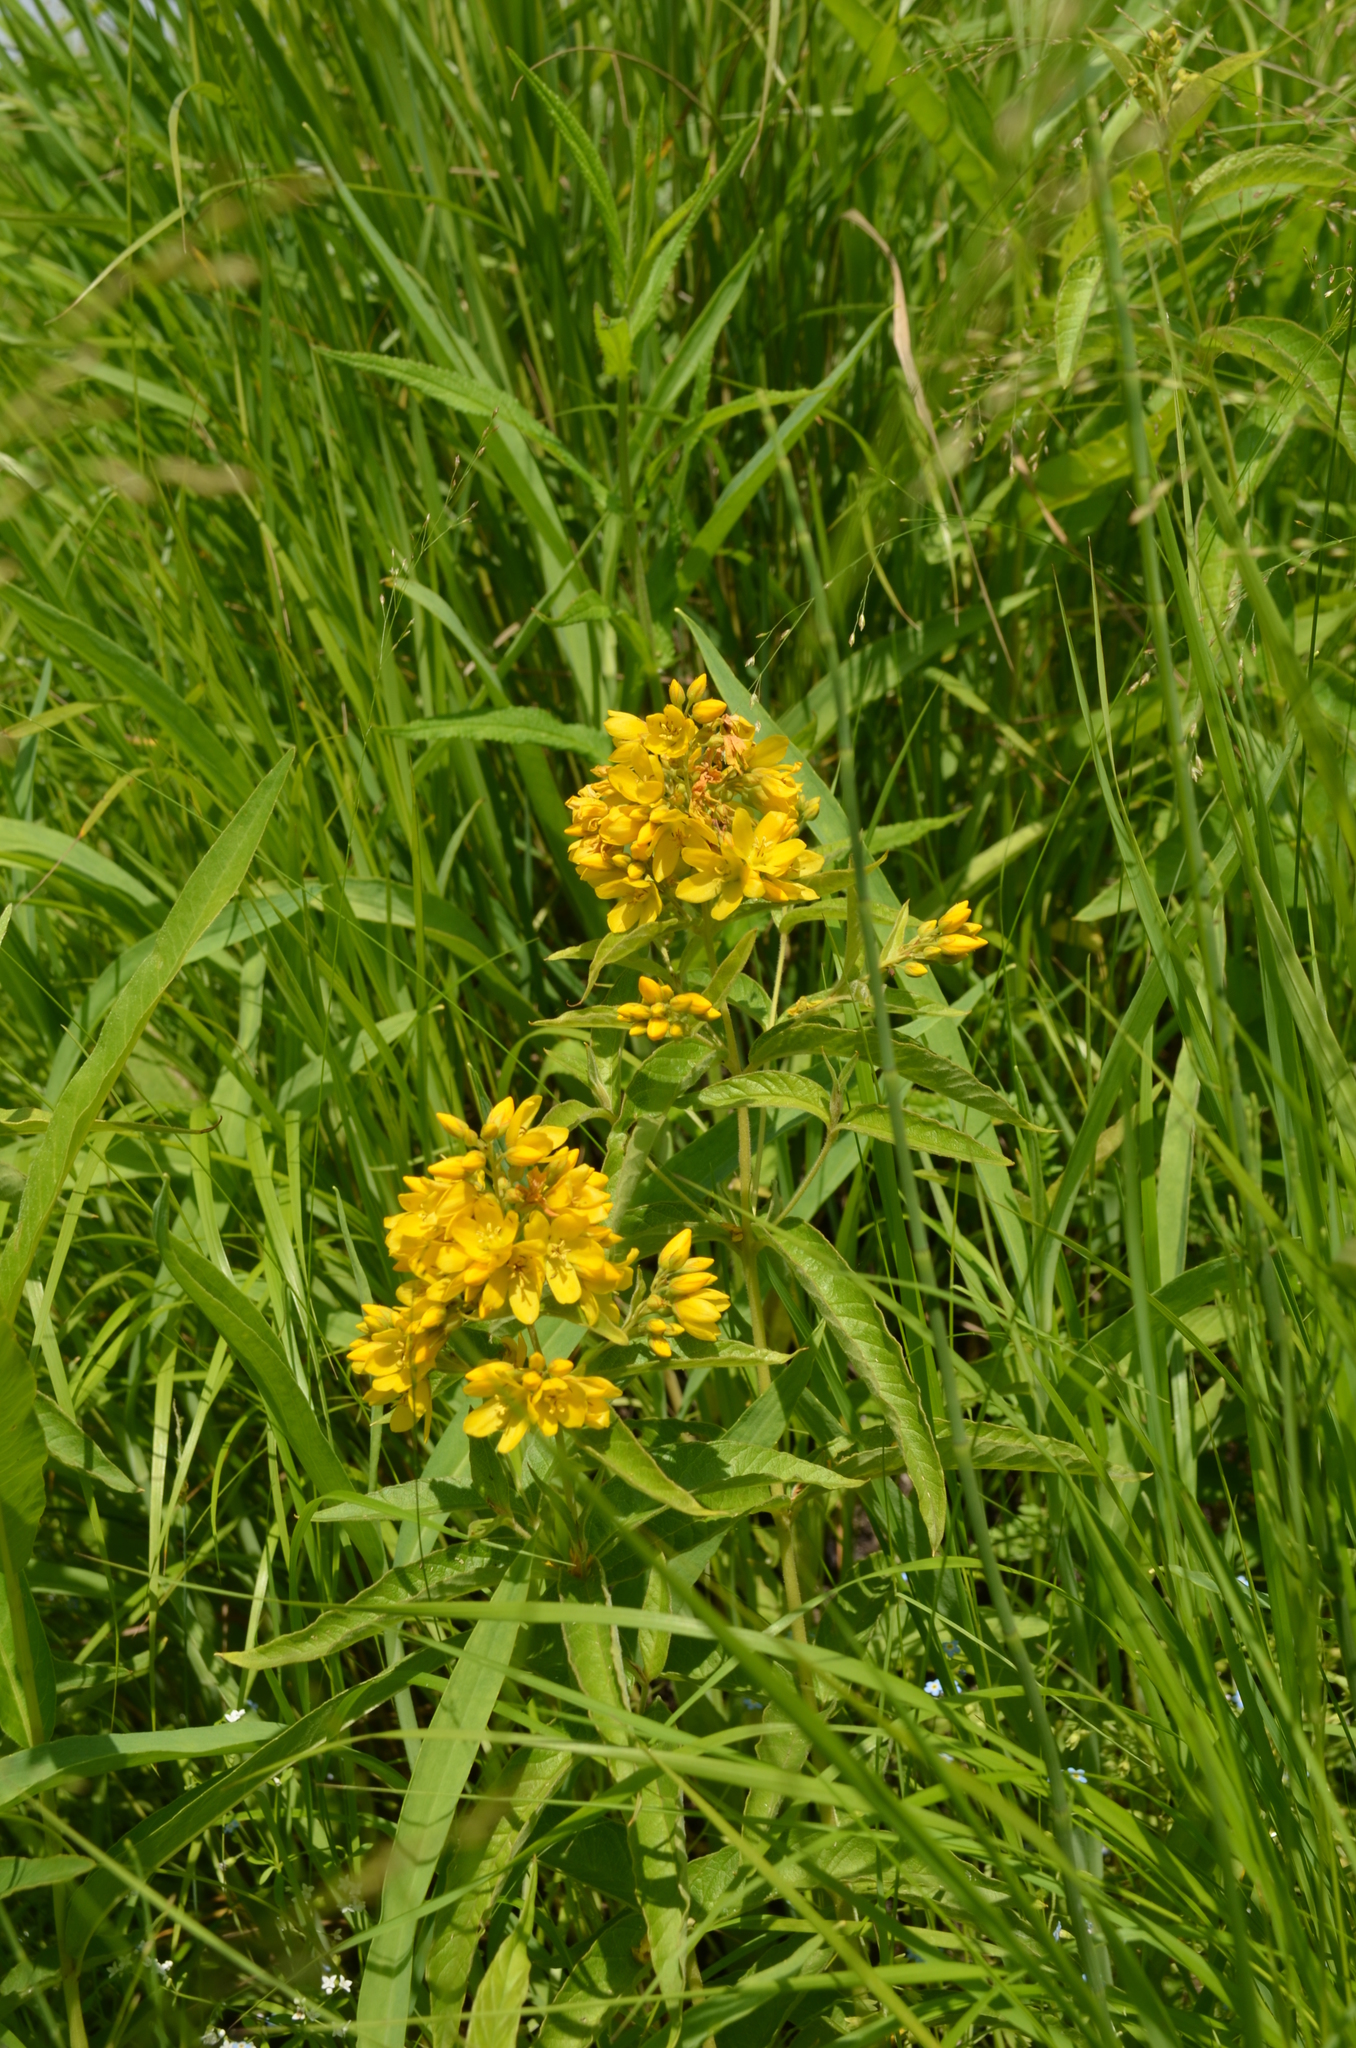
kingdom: Plantae
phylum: Tracheophyta
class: Magnoliopsida
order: Ericales
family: Primulaceae
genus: Lysimachia
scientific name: Lysimachia vulgaris
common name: Yellow loosestrife
